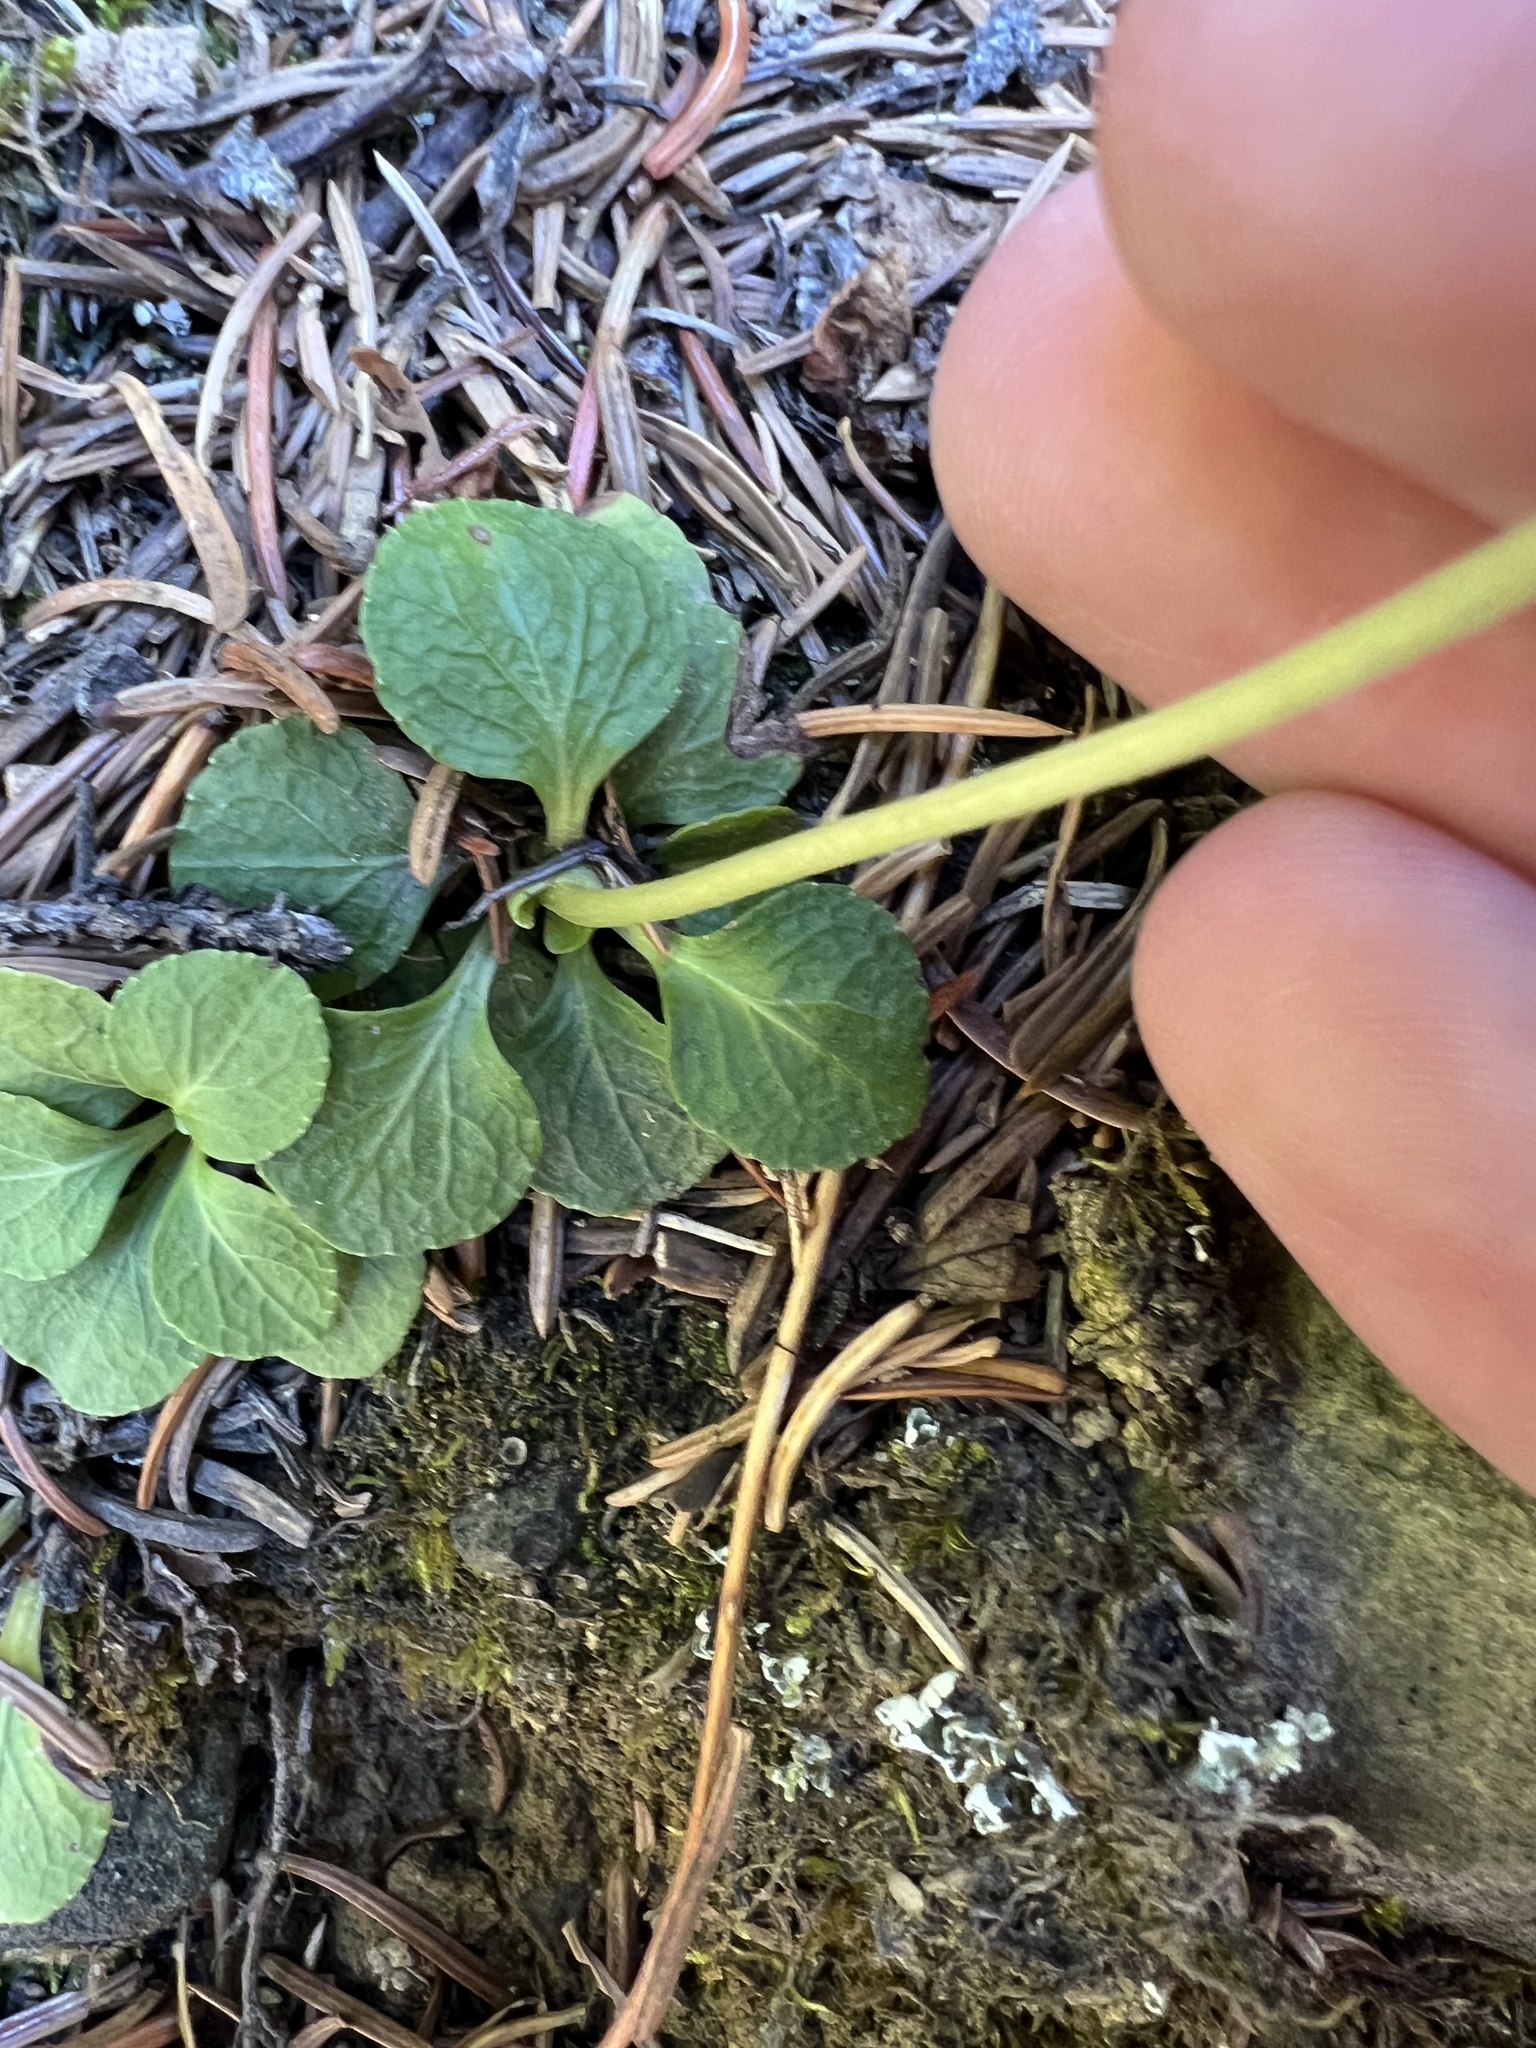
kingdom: Plantae
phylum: Tracheophyta
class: Magnoliopsida
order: Ericales
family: Ericaceae
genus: Moneses
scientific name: Moneses uniflora
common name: One-flowered wintergreen
